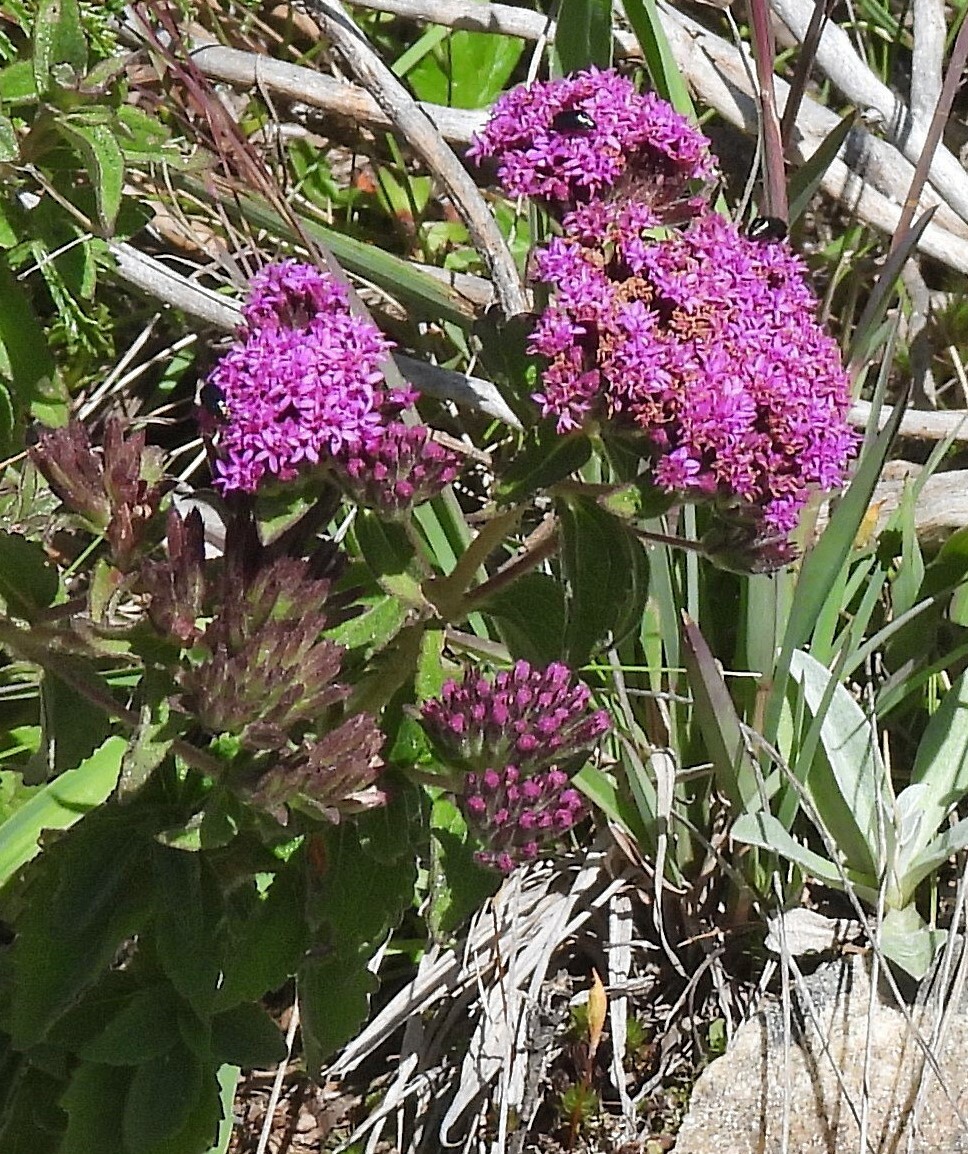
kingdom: Plantae
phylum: Tracheophyta
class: Magnoliopsida
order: Asterales
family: Asteraceae
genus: Stevia
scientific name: Stevia sanguinea
